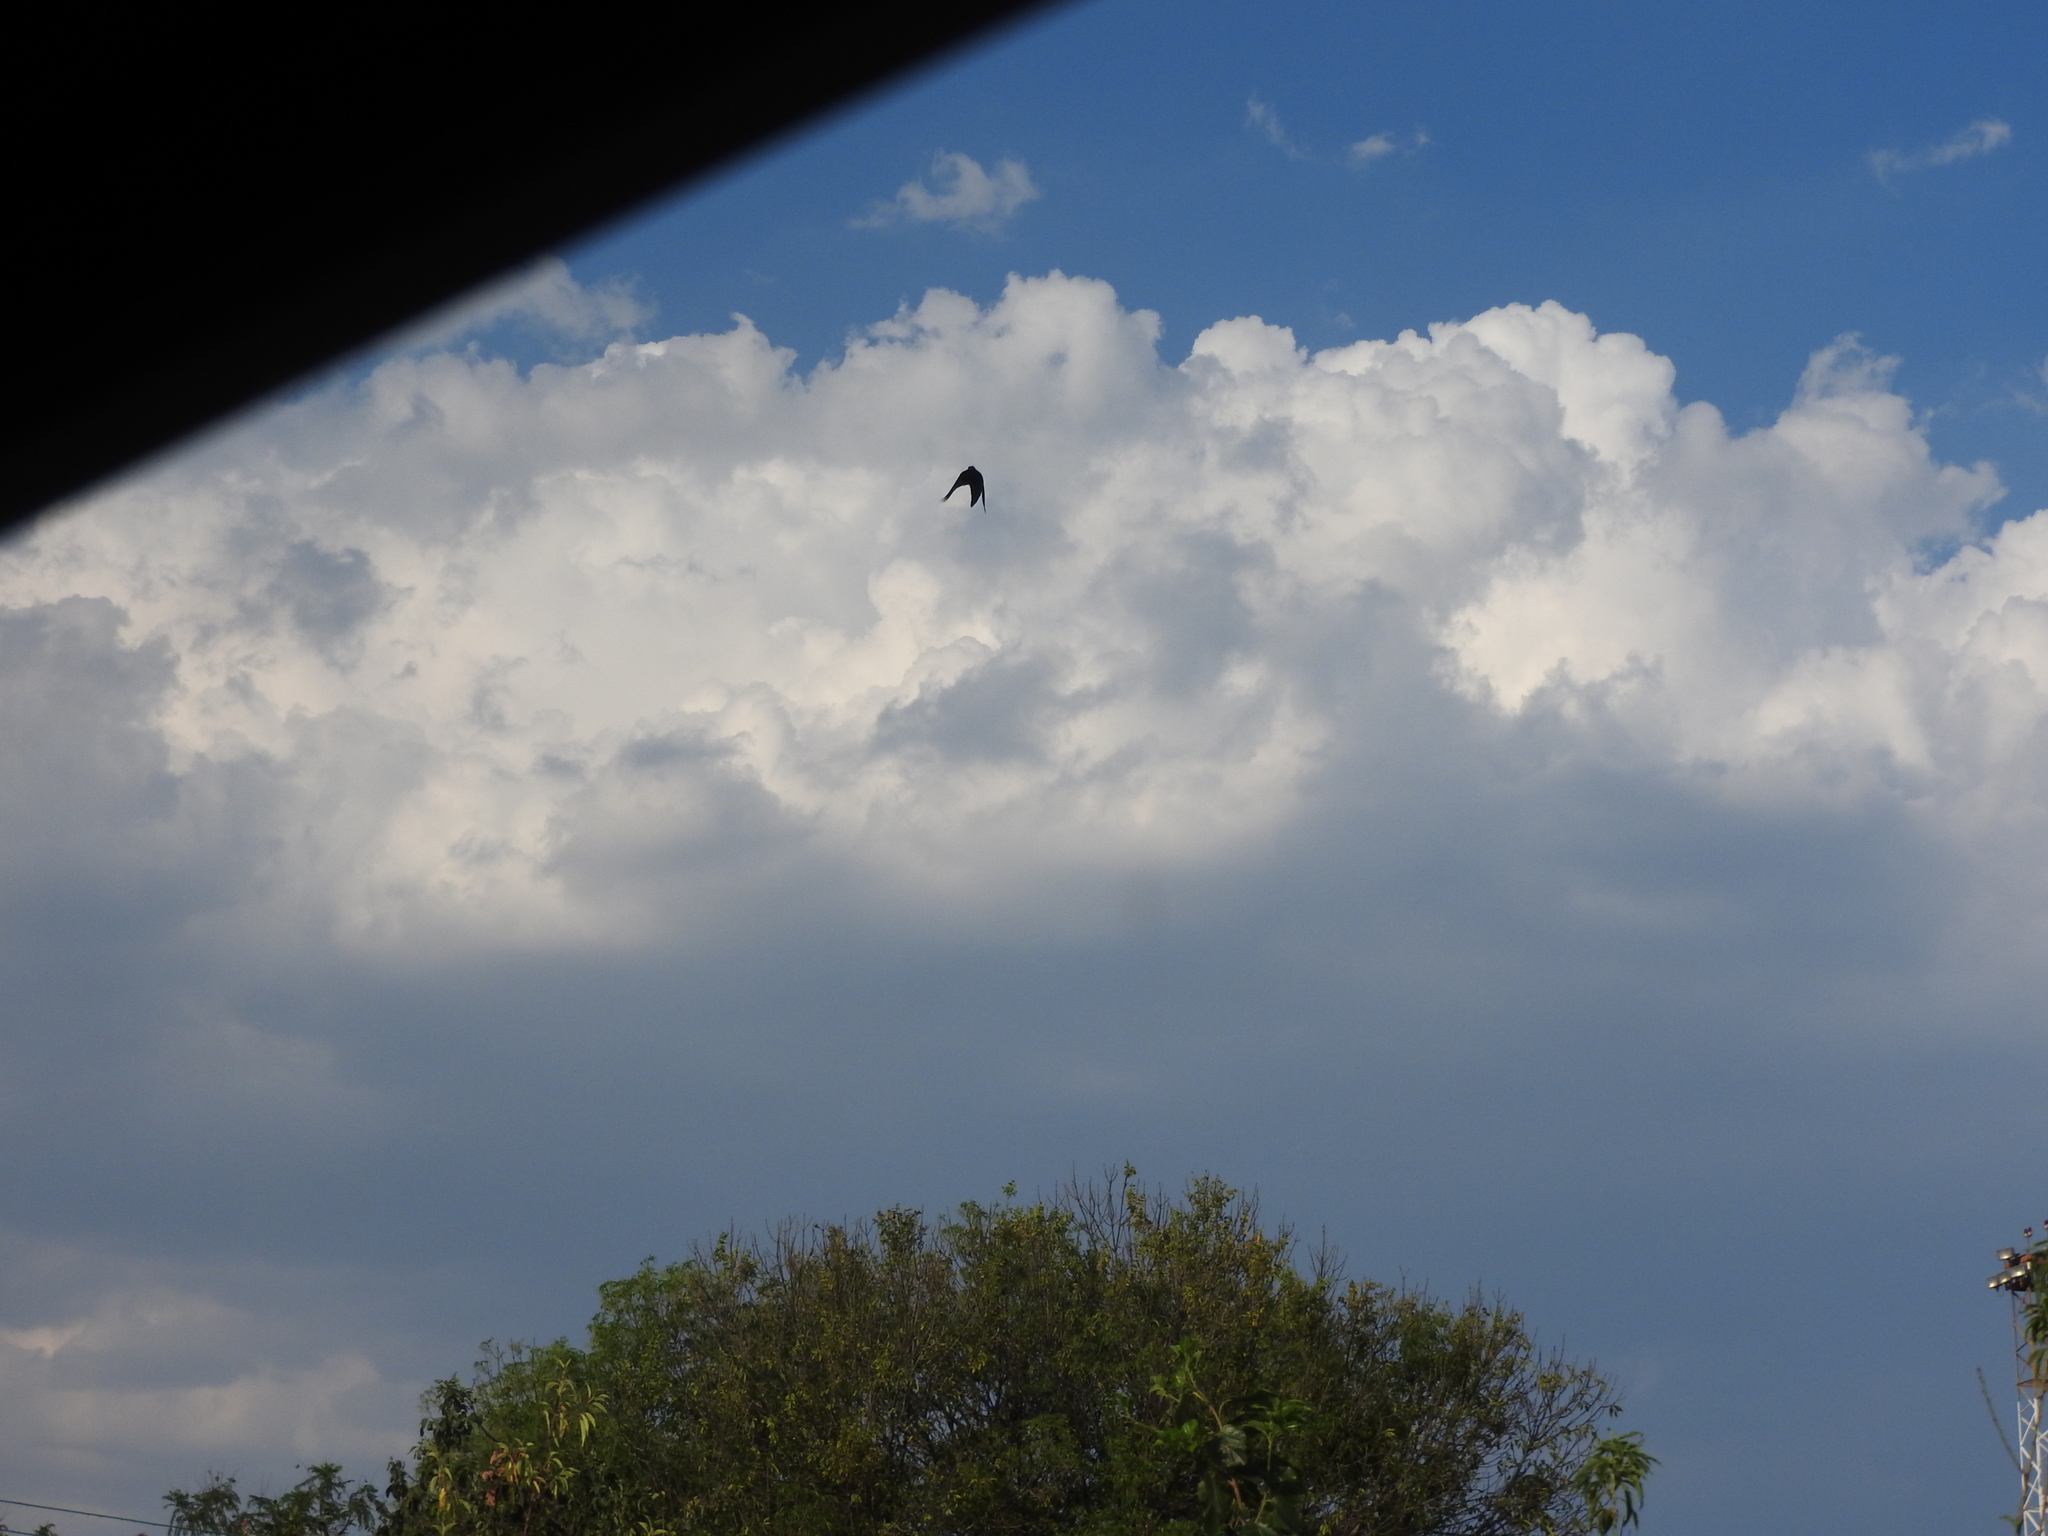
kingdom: Animalia
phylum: Chordata
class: Aves
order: Passeriformes
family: Icteridae
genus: Quiscalus
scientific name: Quiscalus mexicanus
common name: Great-tailed grackle
